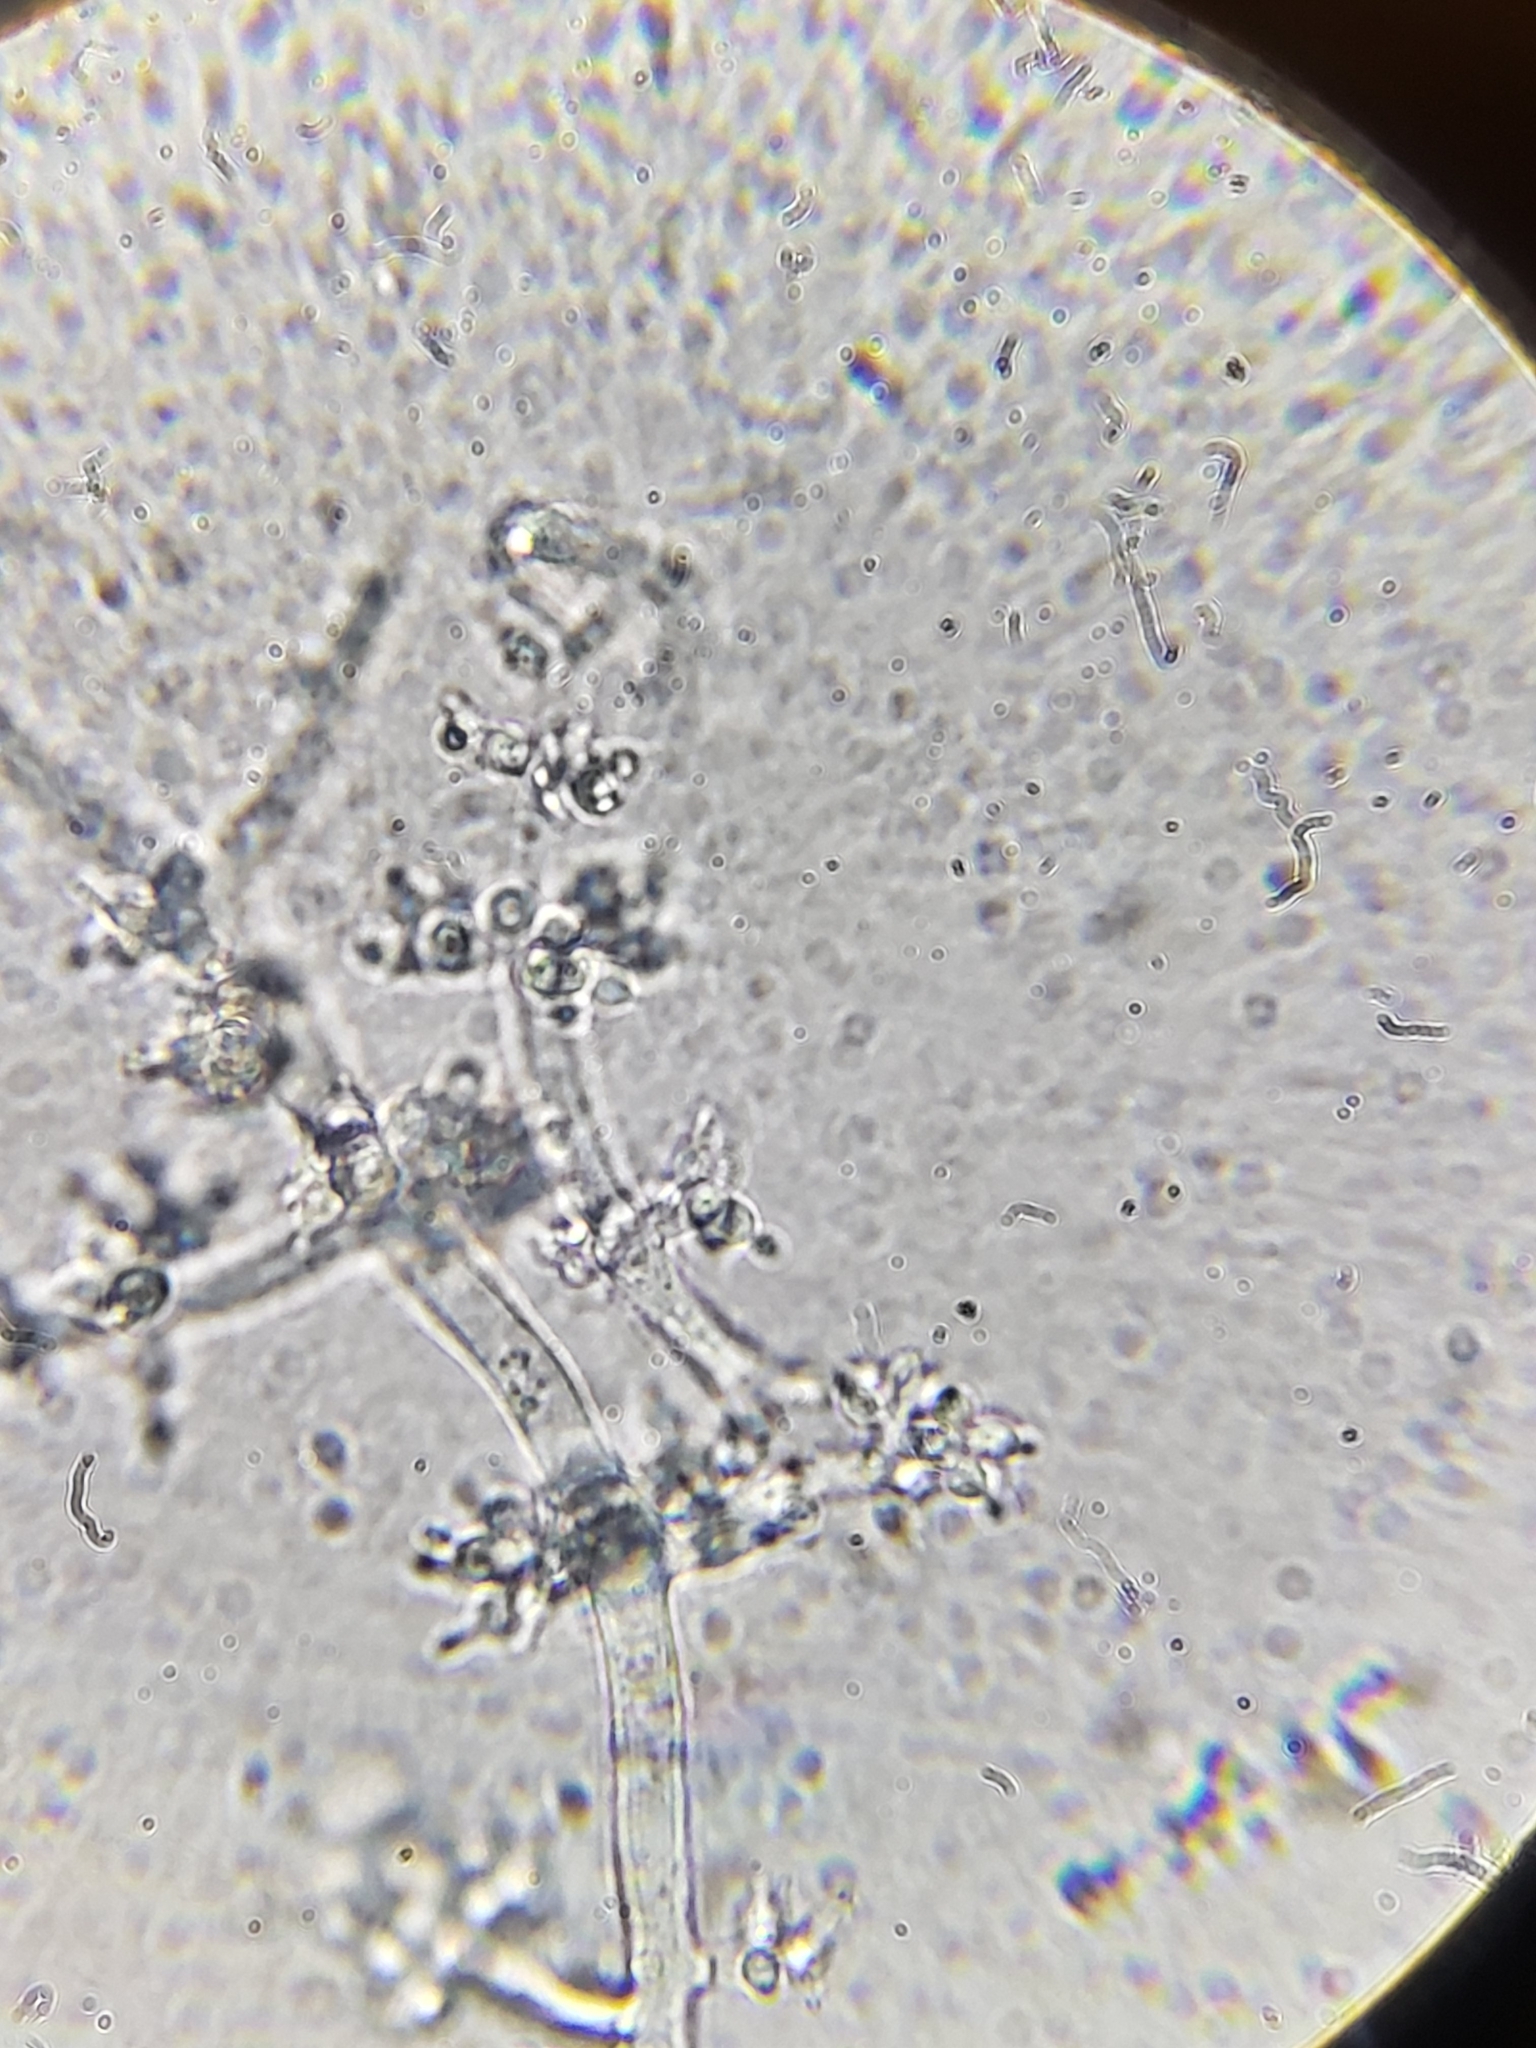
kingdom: Fungi
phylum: Ascomycota
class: Sordariomycetes
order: Hypocreales
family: Hypocreaceae
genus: Trichoderma
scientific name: Trichoderma polysporum
